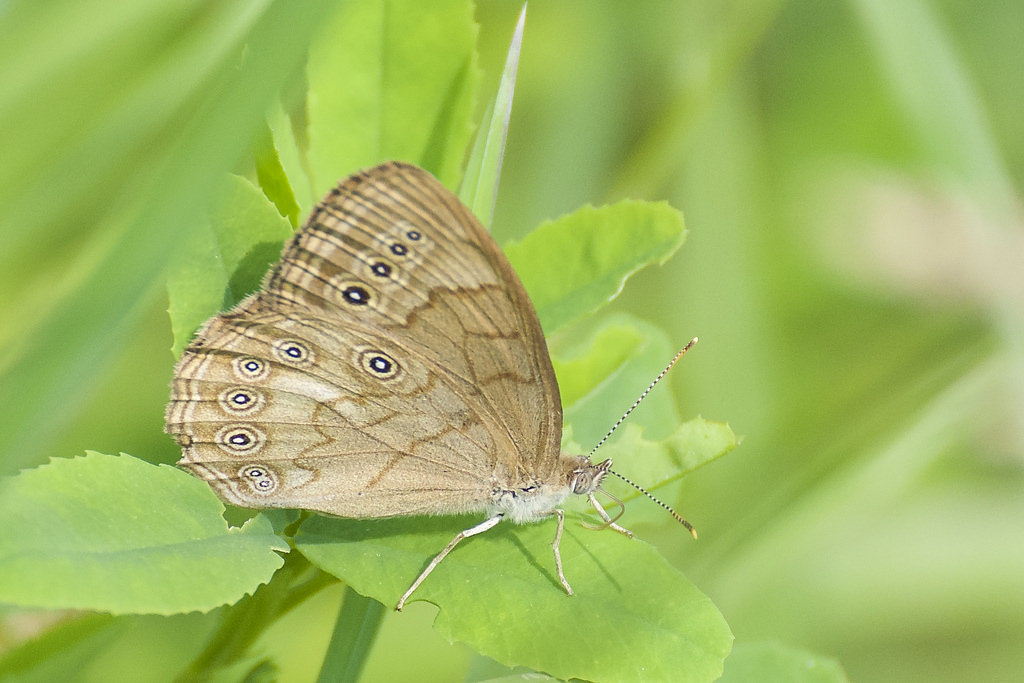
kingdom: Animalia
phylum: Arthropoda
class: Insecta
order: Lepidoptera
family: Nymphalidae
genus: Lethe
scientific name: Lethe eurydice
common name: Eyed brown
